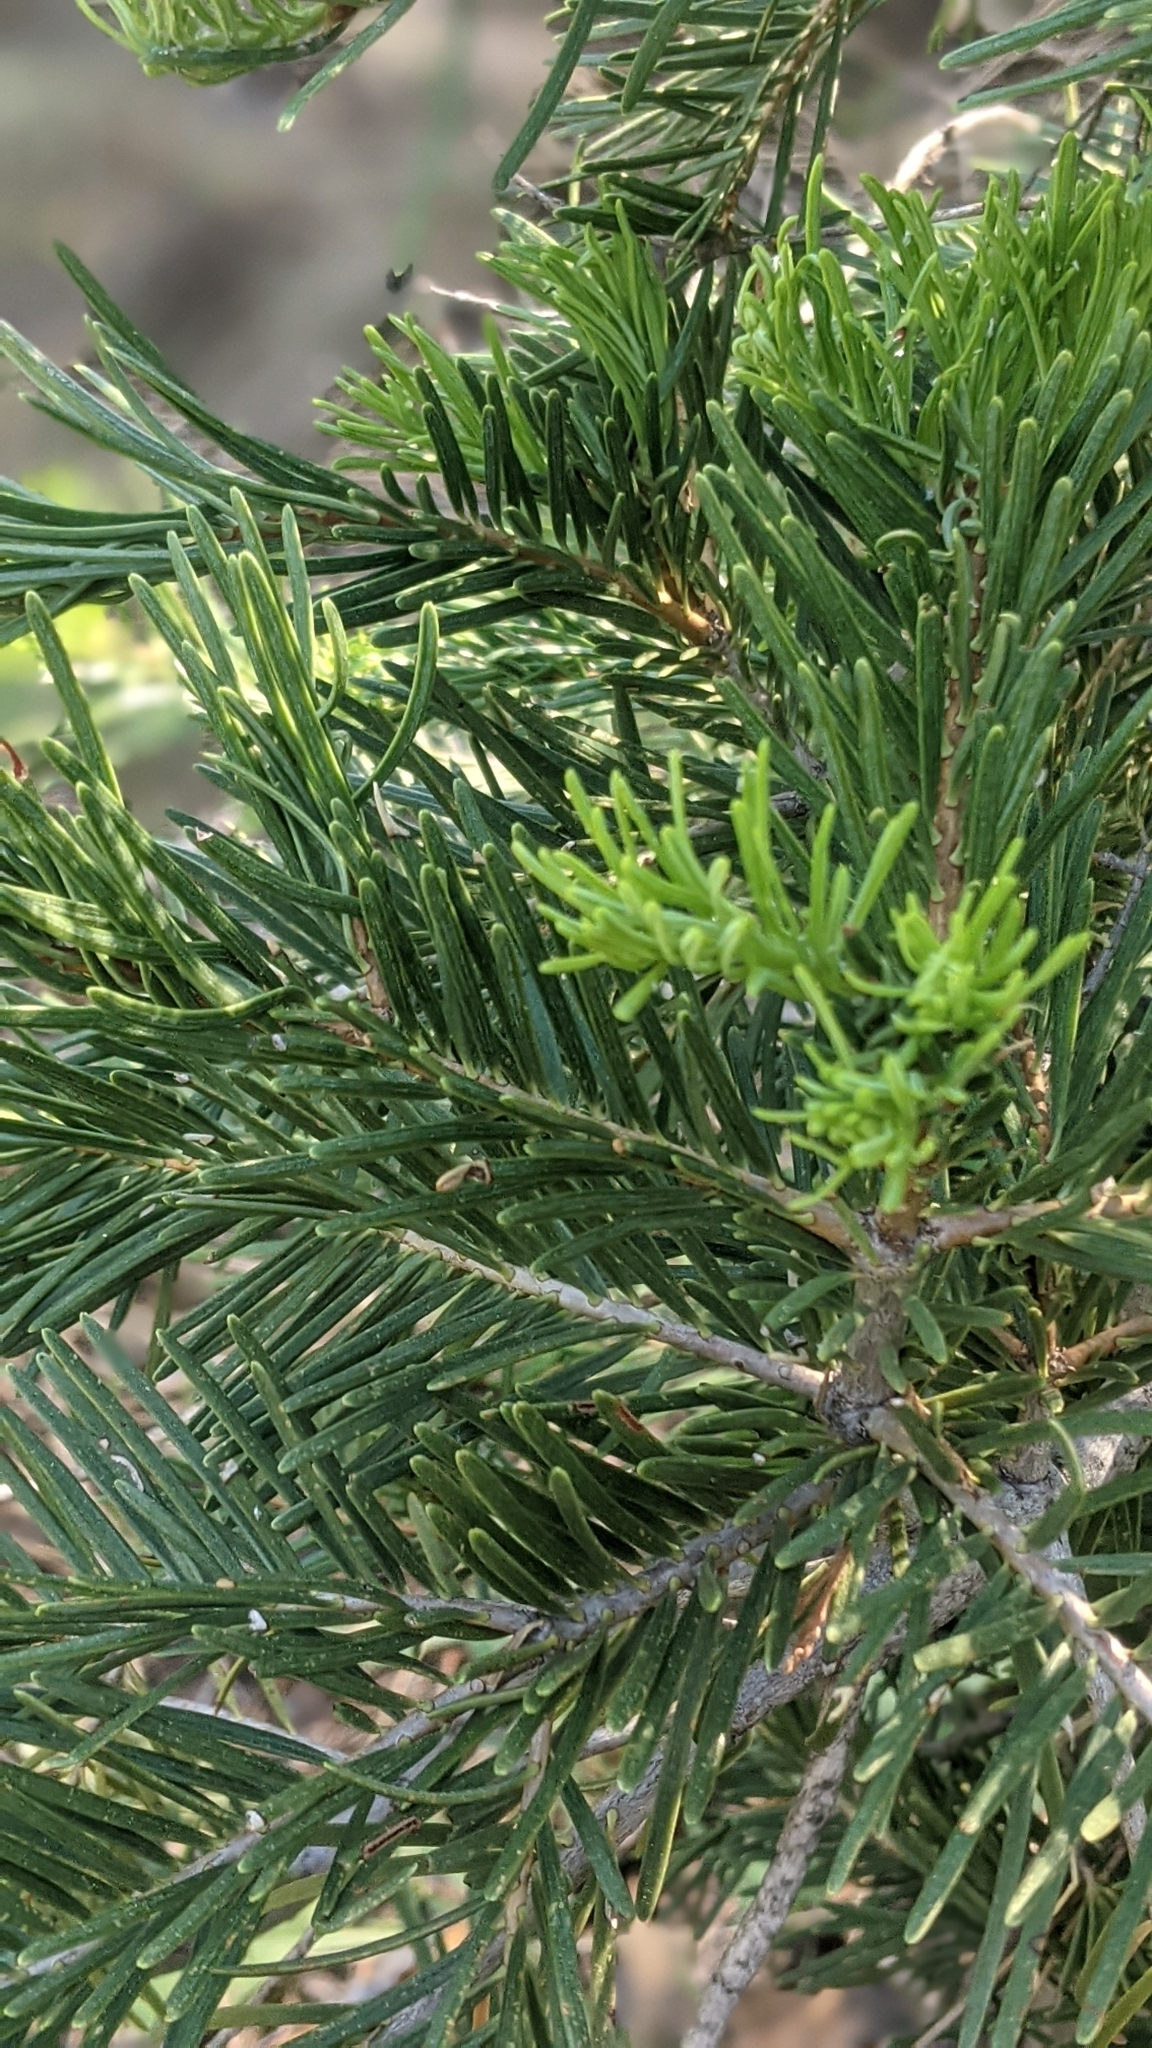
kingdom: Plantae
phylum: Tracheophyta
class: Pinopsida
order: Pinales
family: Pinaceae
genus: Abies
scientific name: Abies concolor
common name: Colorado fir
